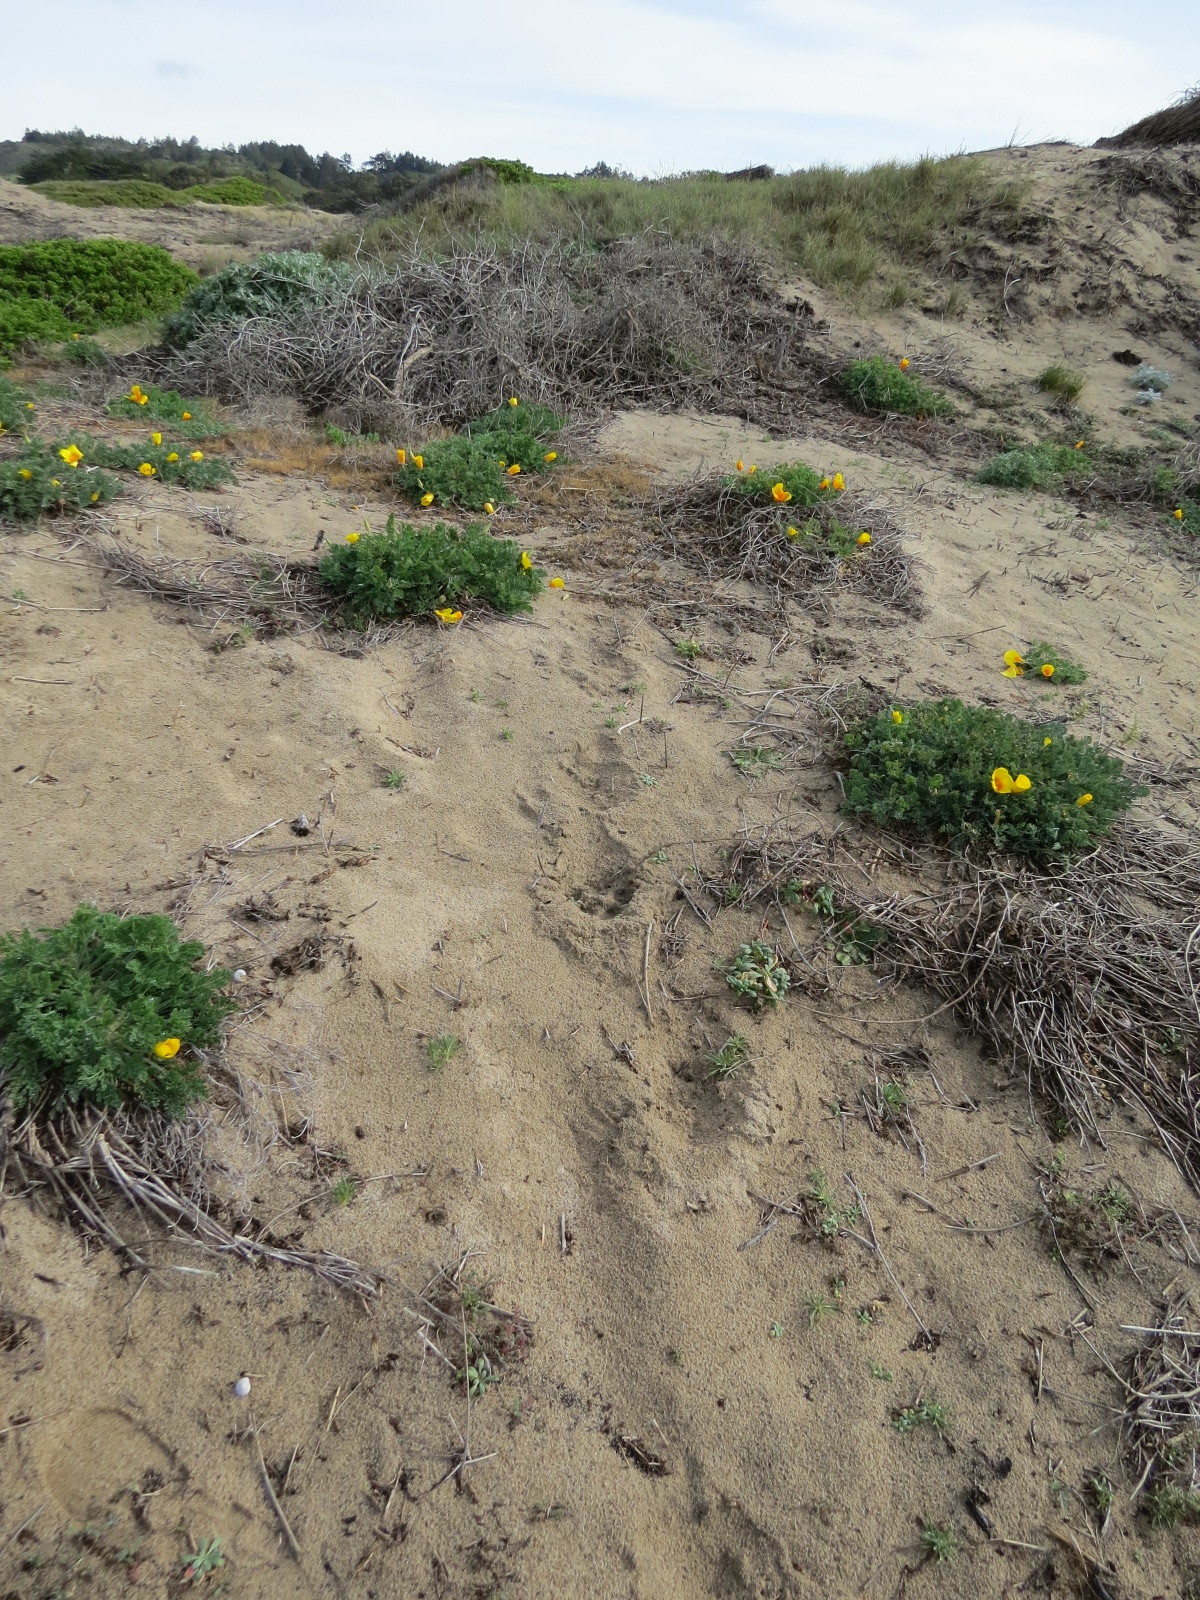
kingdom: Plantae
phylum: Tracheophyta
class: Magnoliopsida
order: Ranunculales
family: Papaveraceae
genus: Eschscholzia
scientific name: Eschscholzia californica
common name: California poppy
